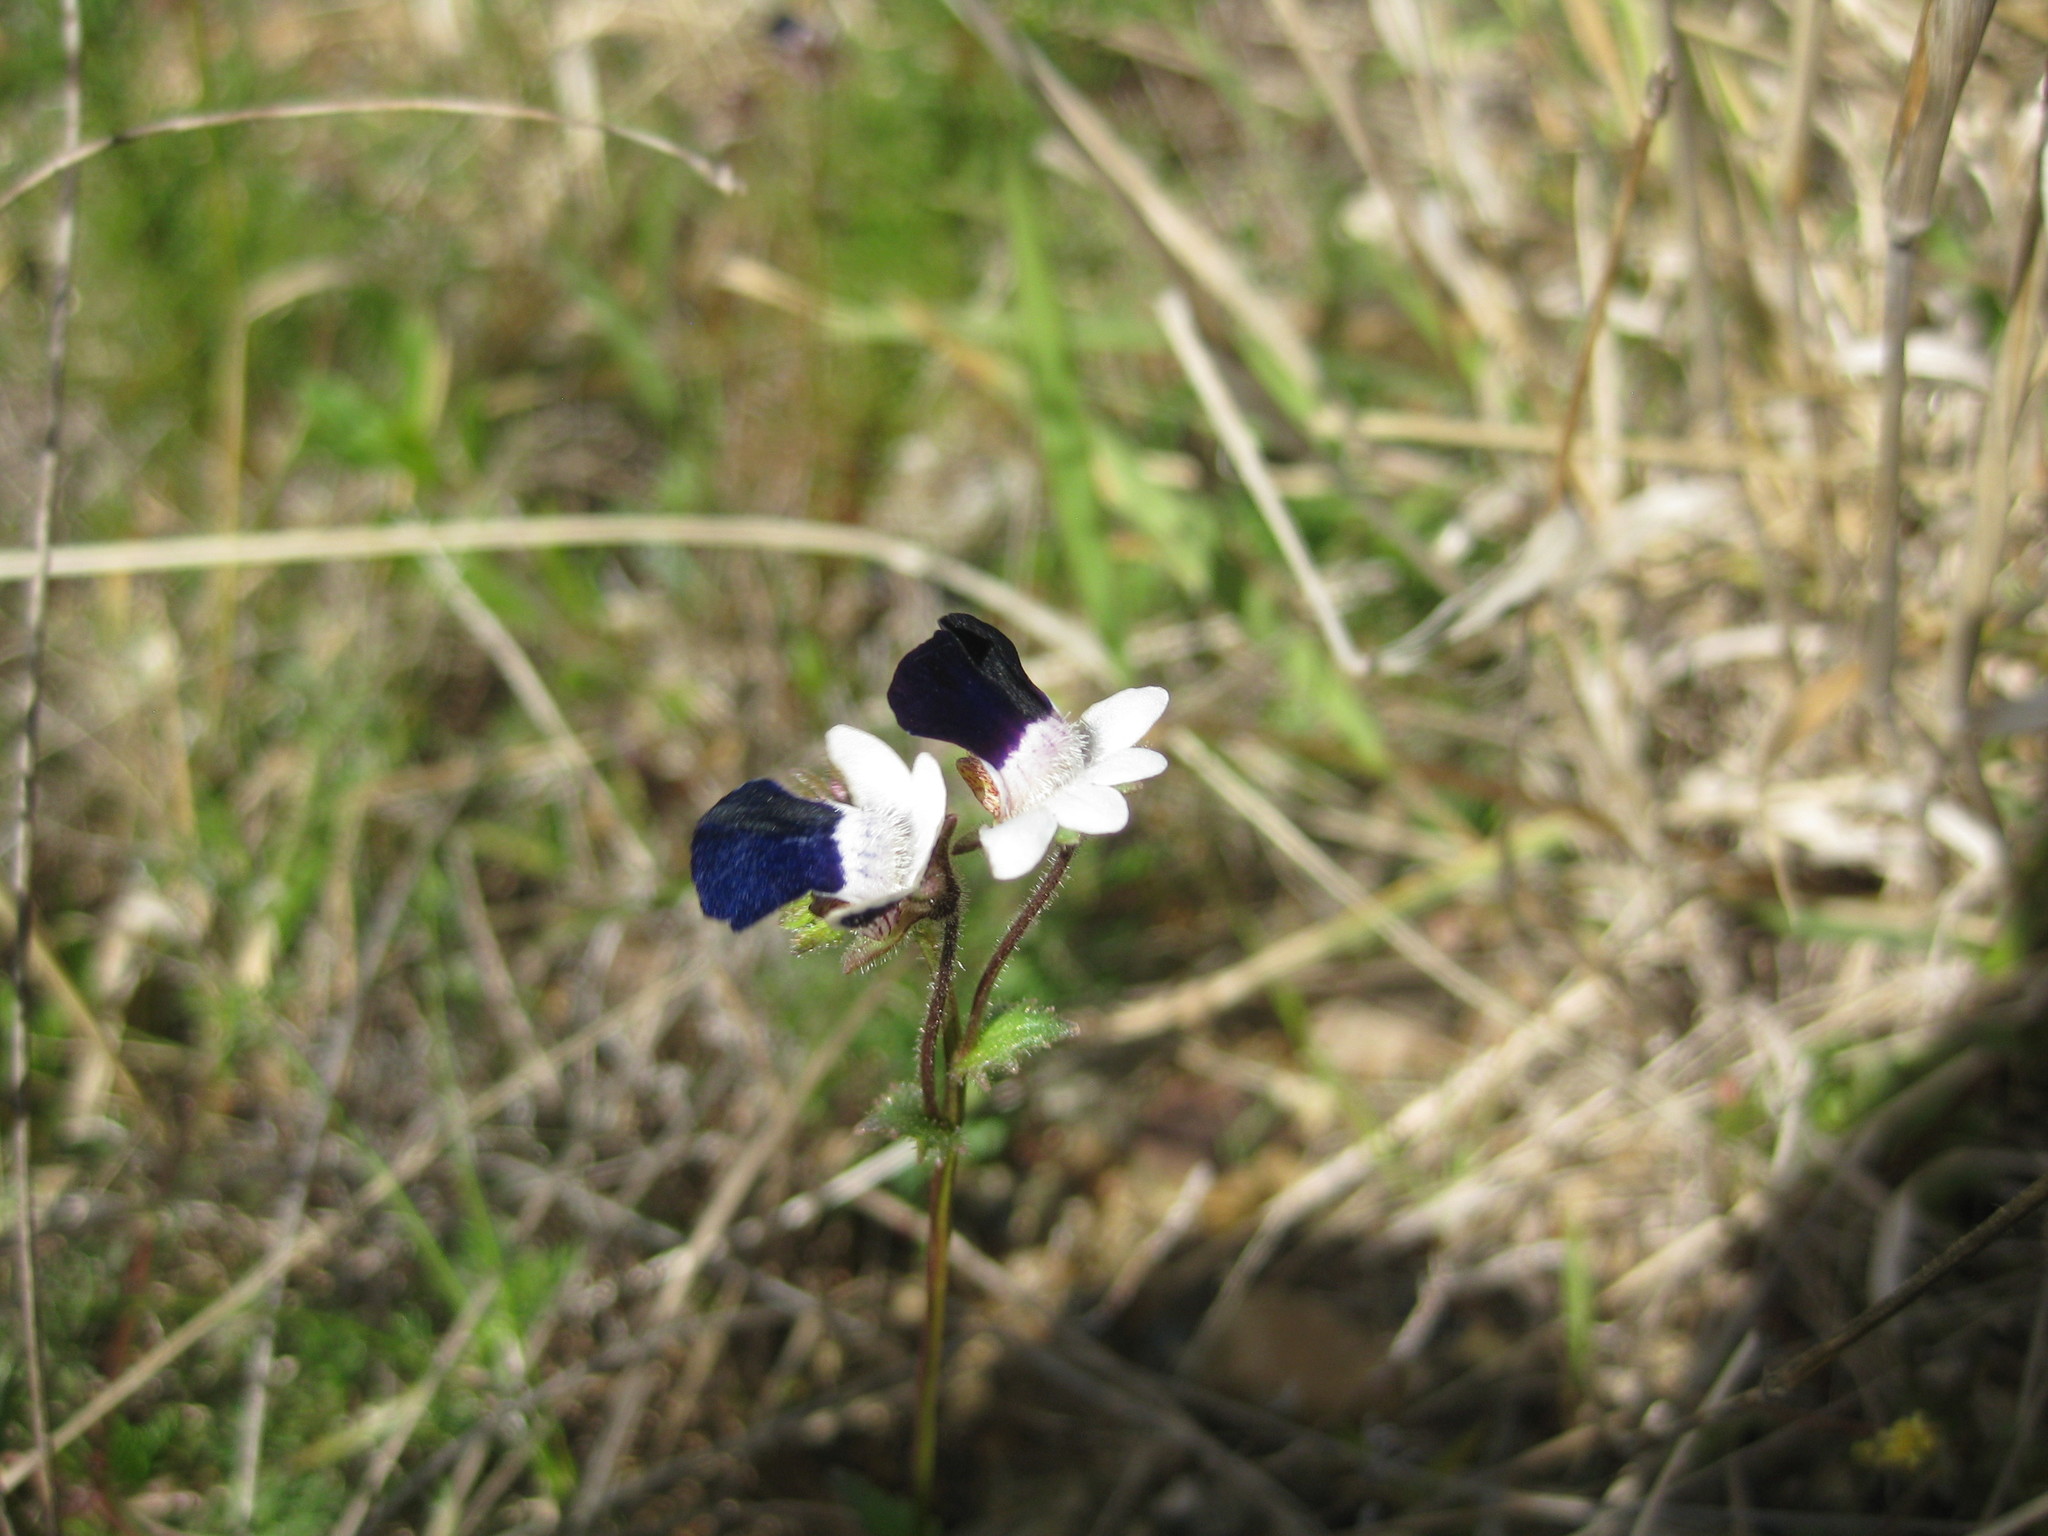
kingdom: Plantae
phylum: Tracheophyta
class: Magnoliopsida
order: Lamiales
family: Scrophulariaceae
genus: Nemesia
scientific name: Nemesia barbata
